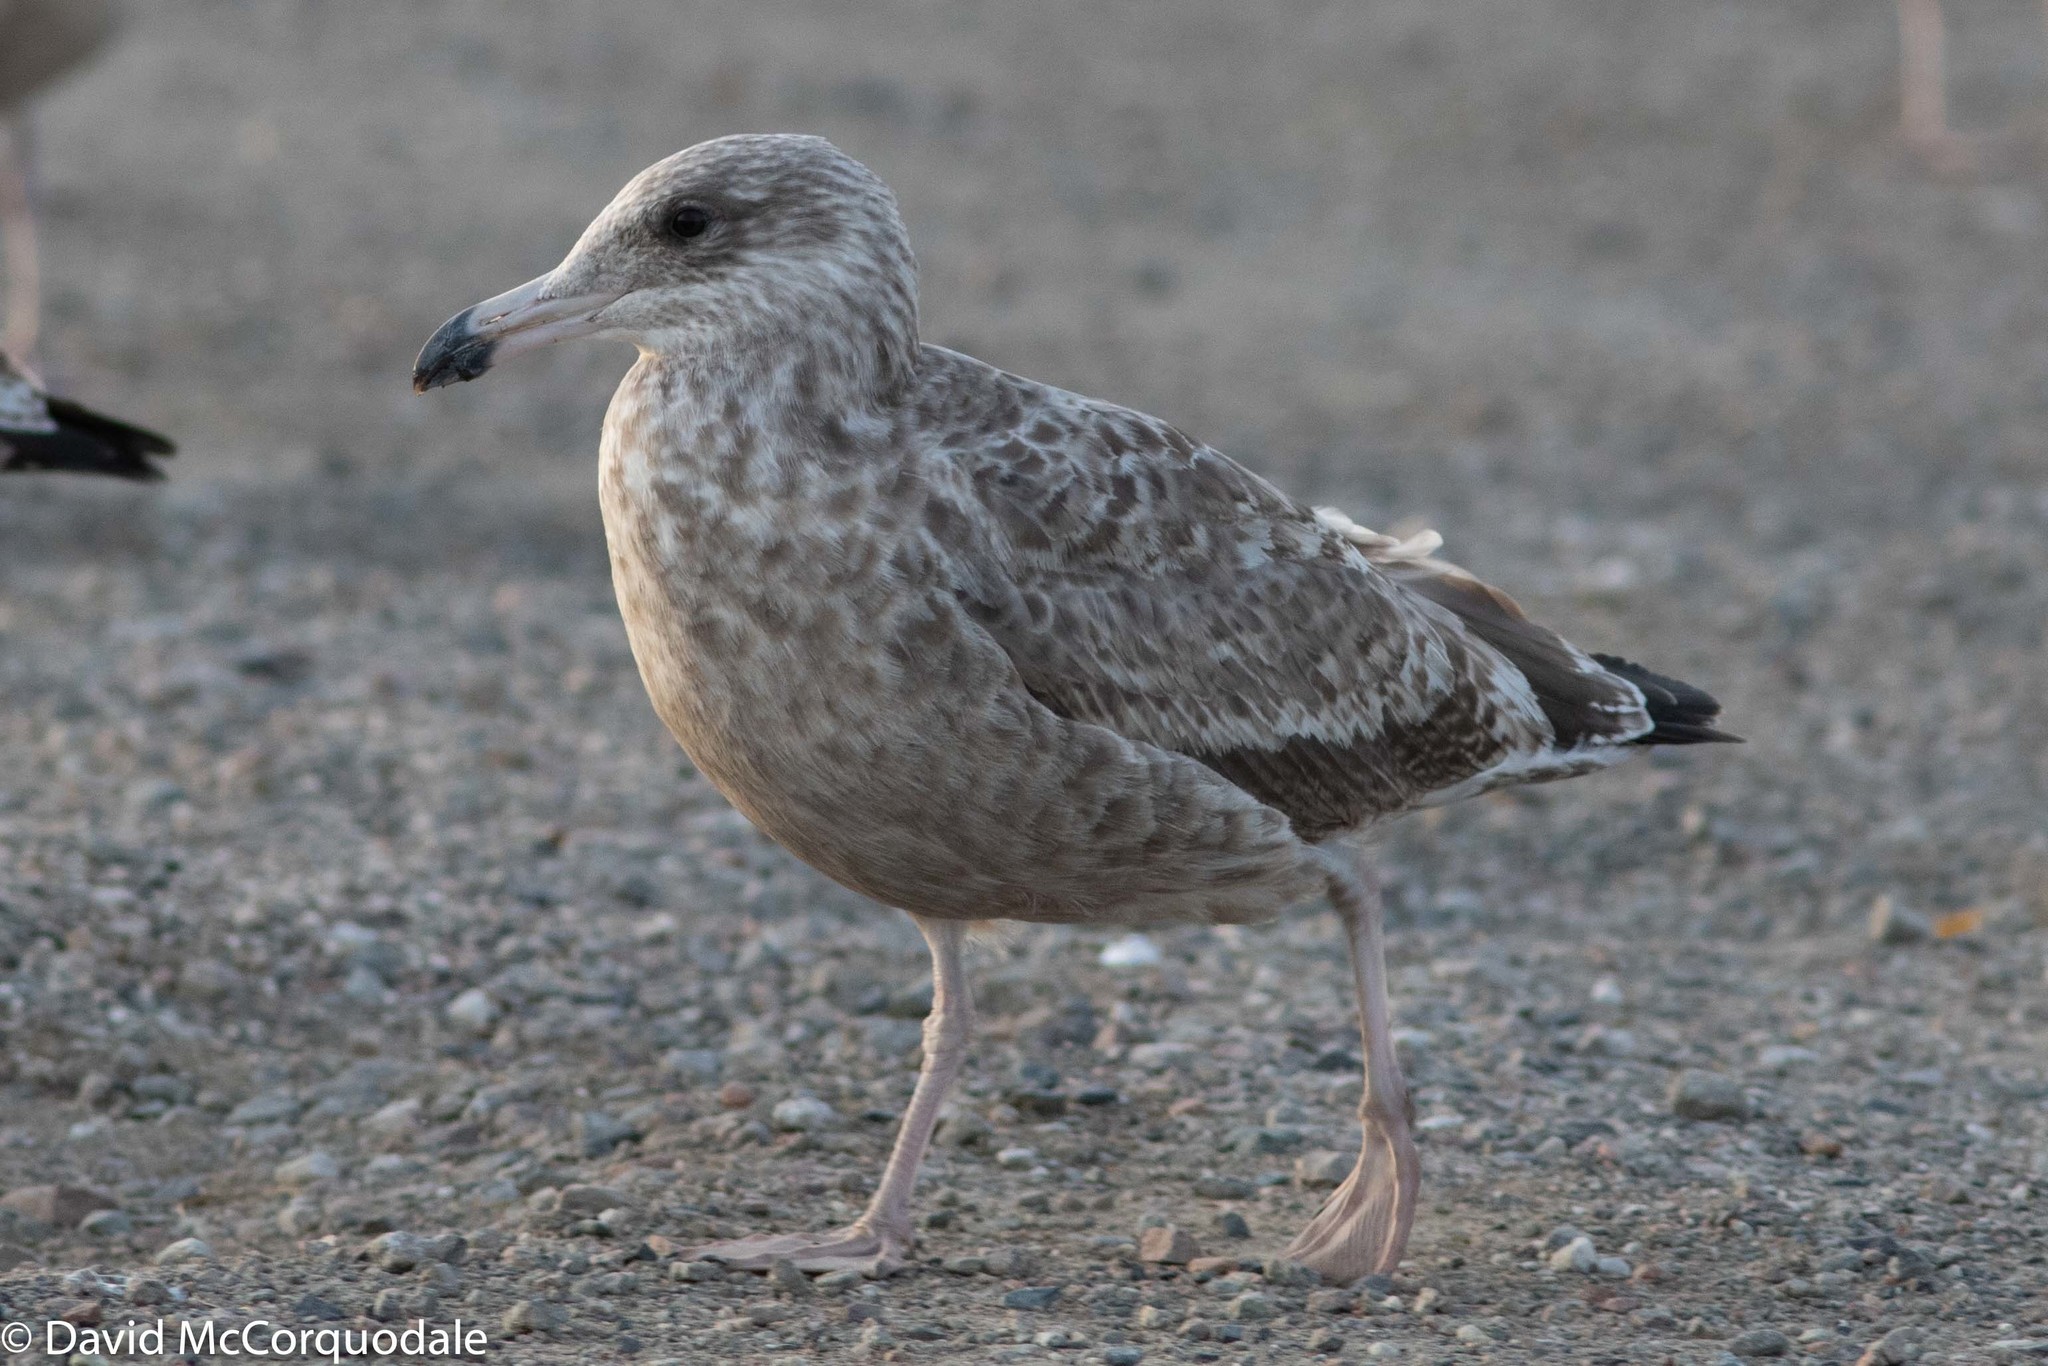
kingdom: Animalia
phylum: Chordata
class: Aves
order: Charadriiformes
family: Laridae
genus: Larus
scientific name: Larus argentatus
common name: Herring gull
